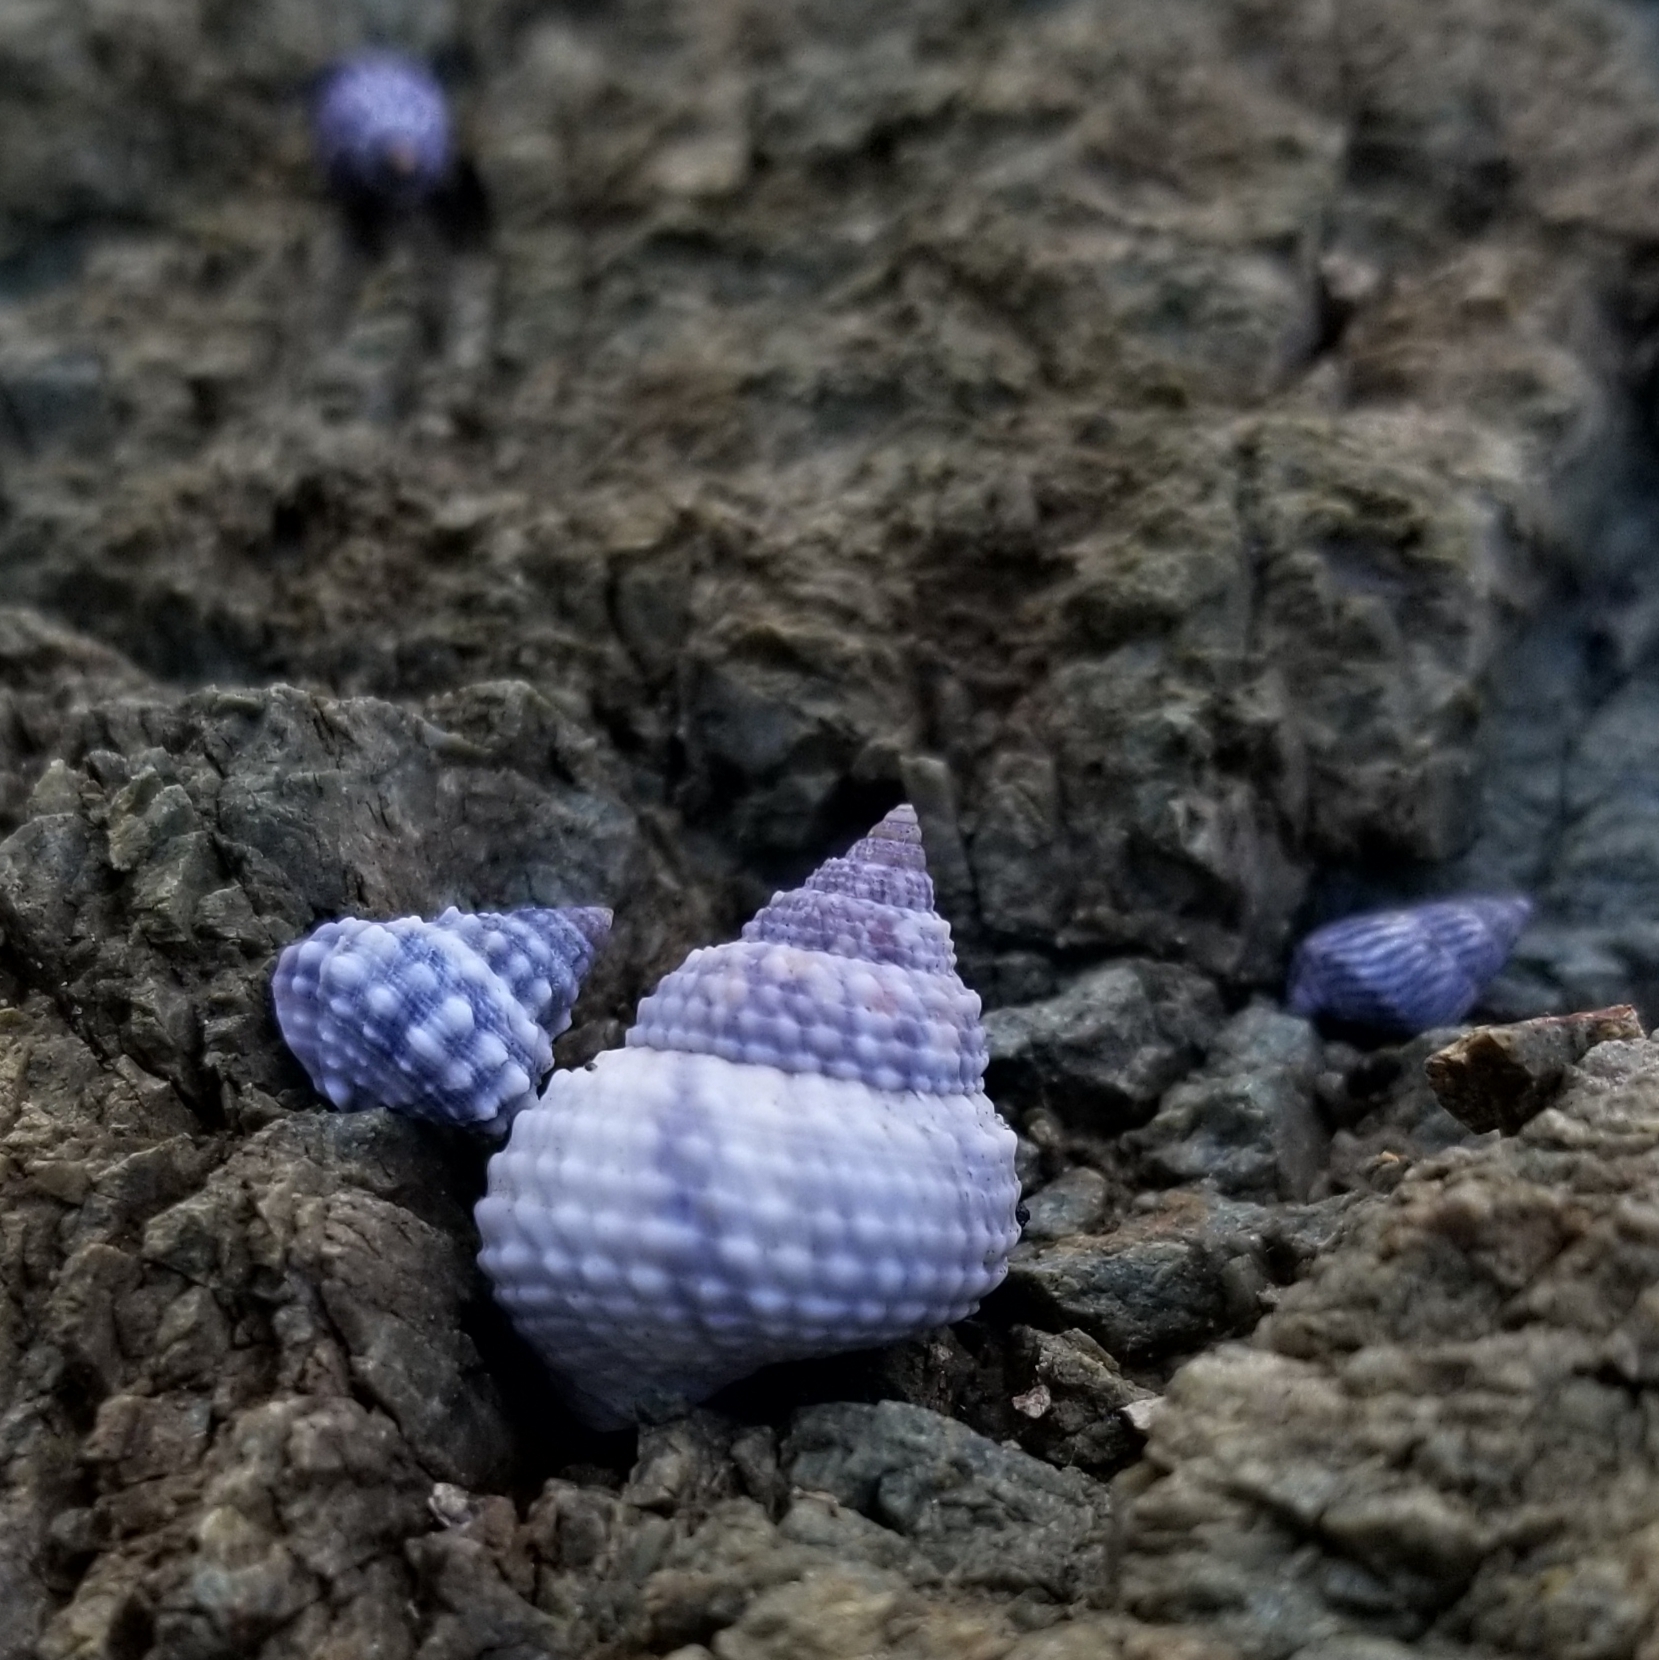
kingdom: Animalia
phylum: Mollusca
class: Gastropoda
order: Littorinimorpha
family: Littorinidae
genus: Cenchritis
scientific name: Cenchritis muricatus
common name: Beaded periwinkle
